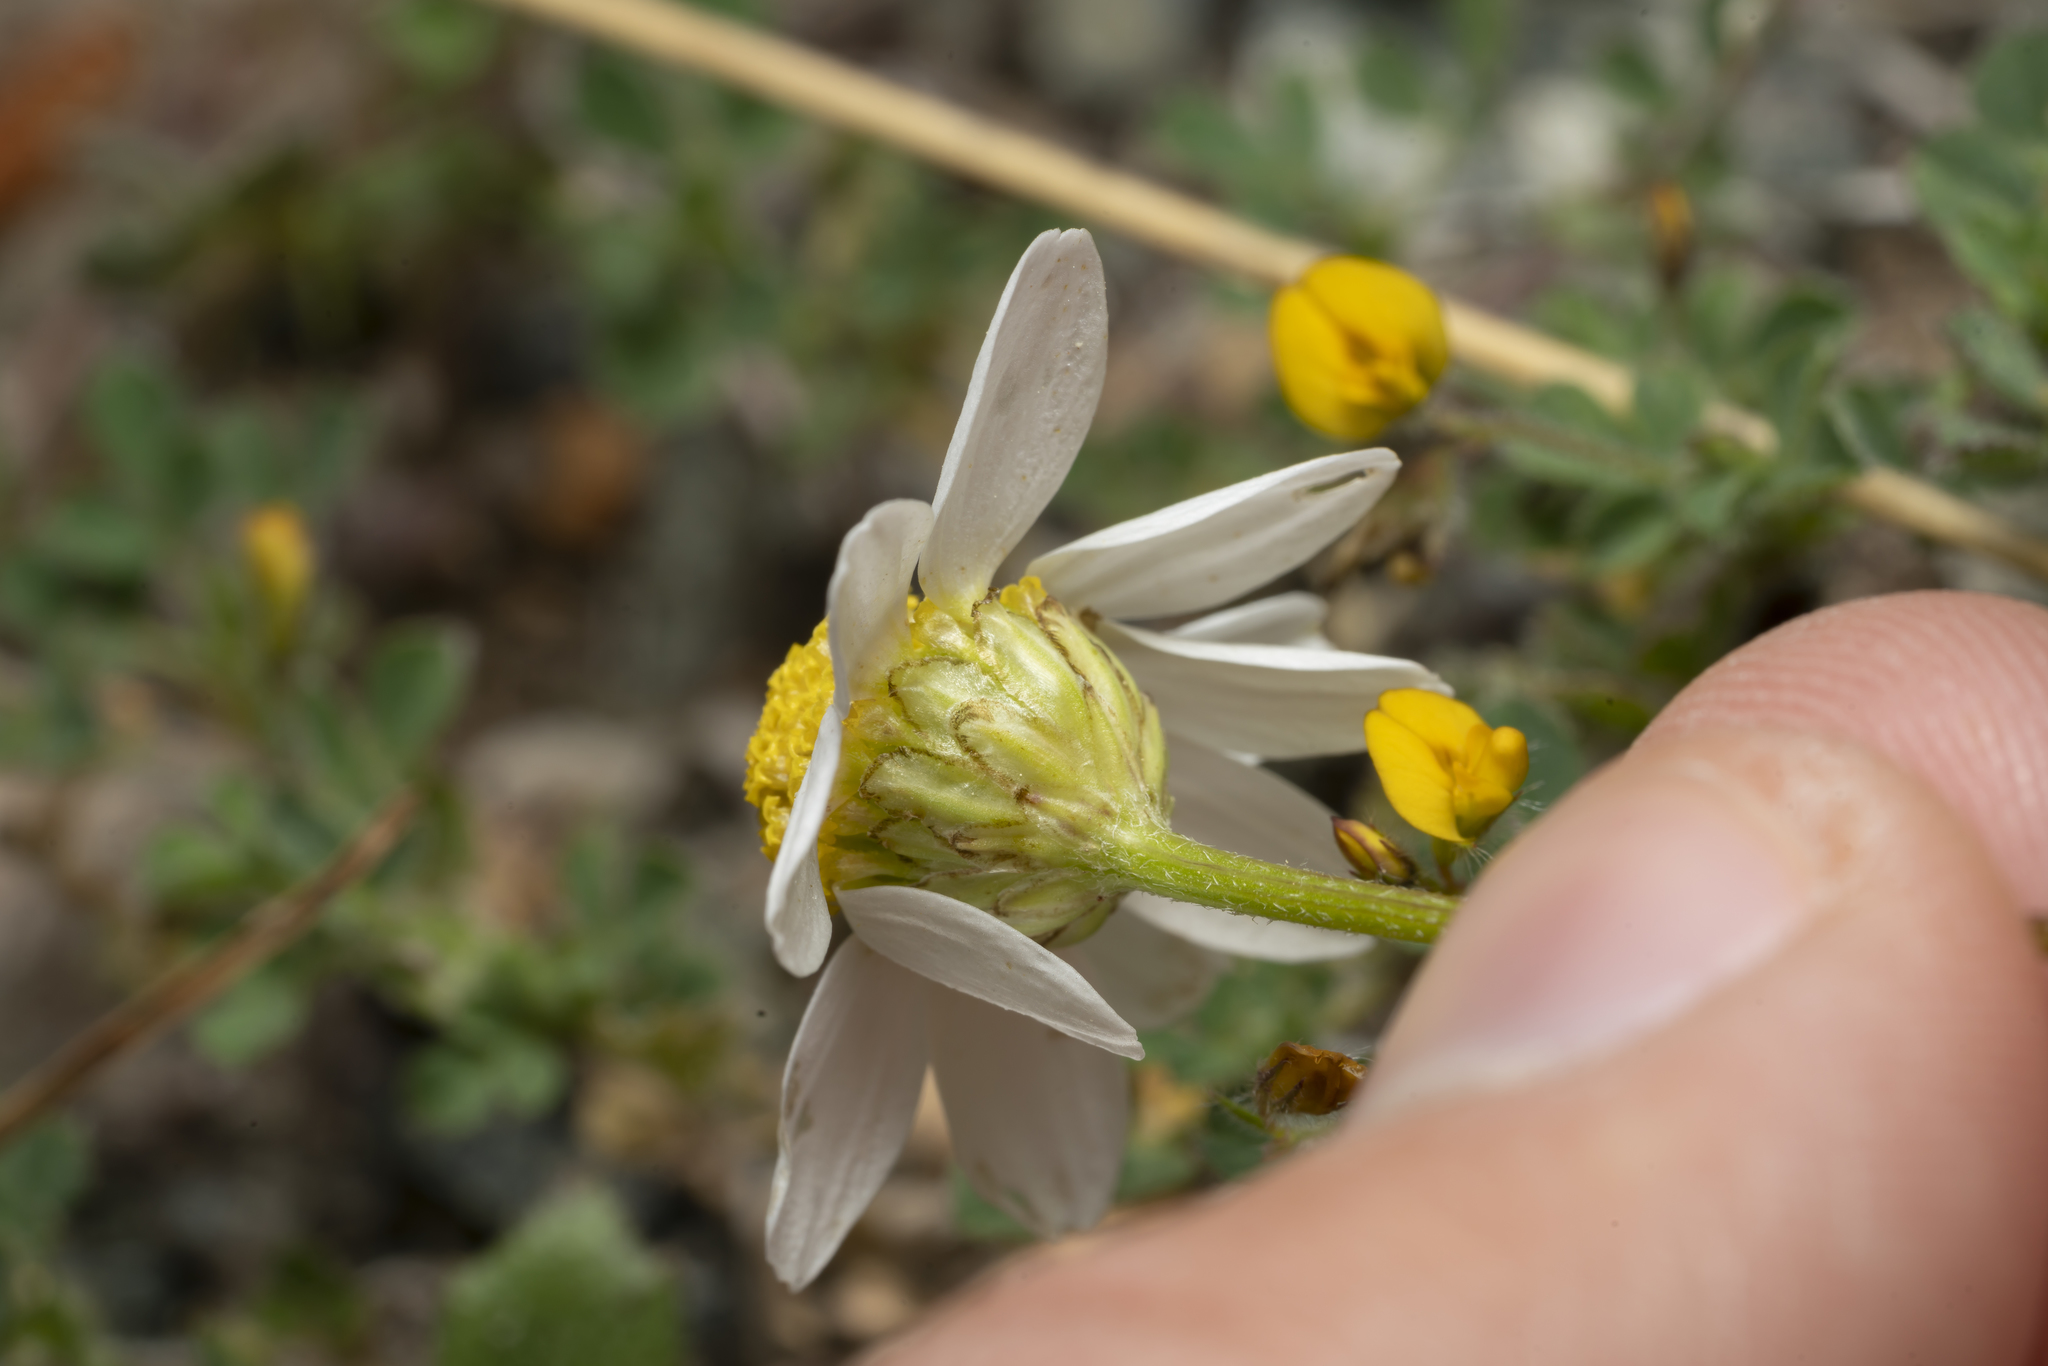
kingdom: Plantae
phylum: Tracheophyta
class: Magnoliopsida
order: Asterales
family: Asteraceae
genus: Anthemis
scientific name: Anthemis macrotis
